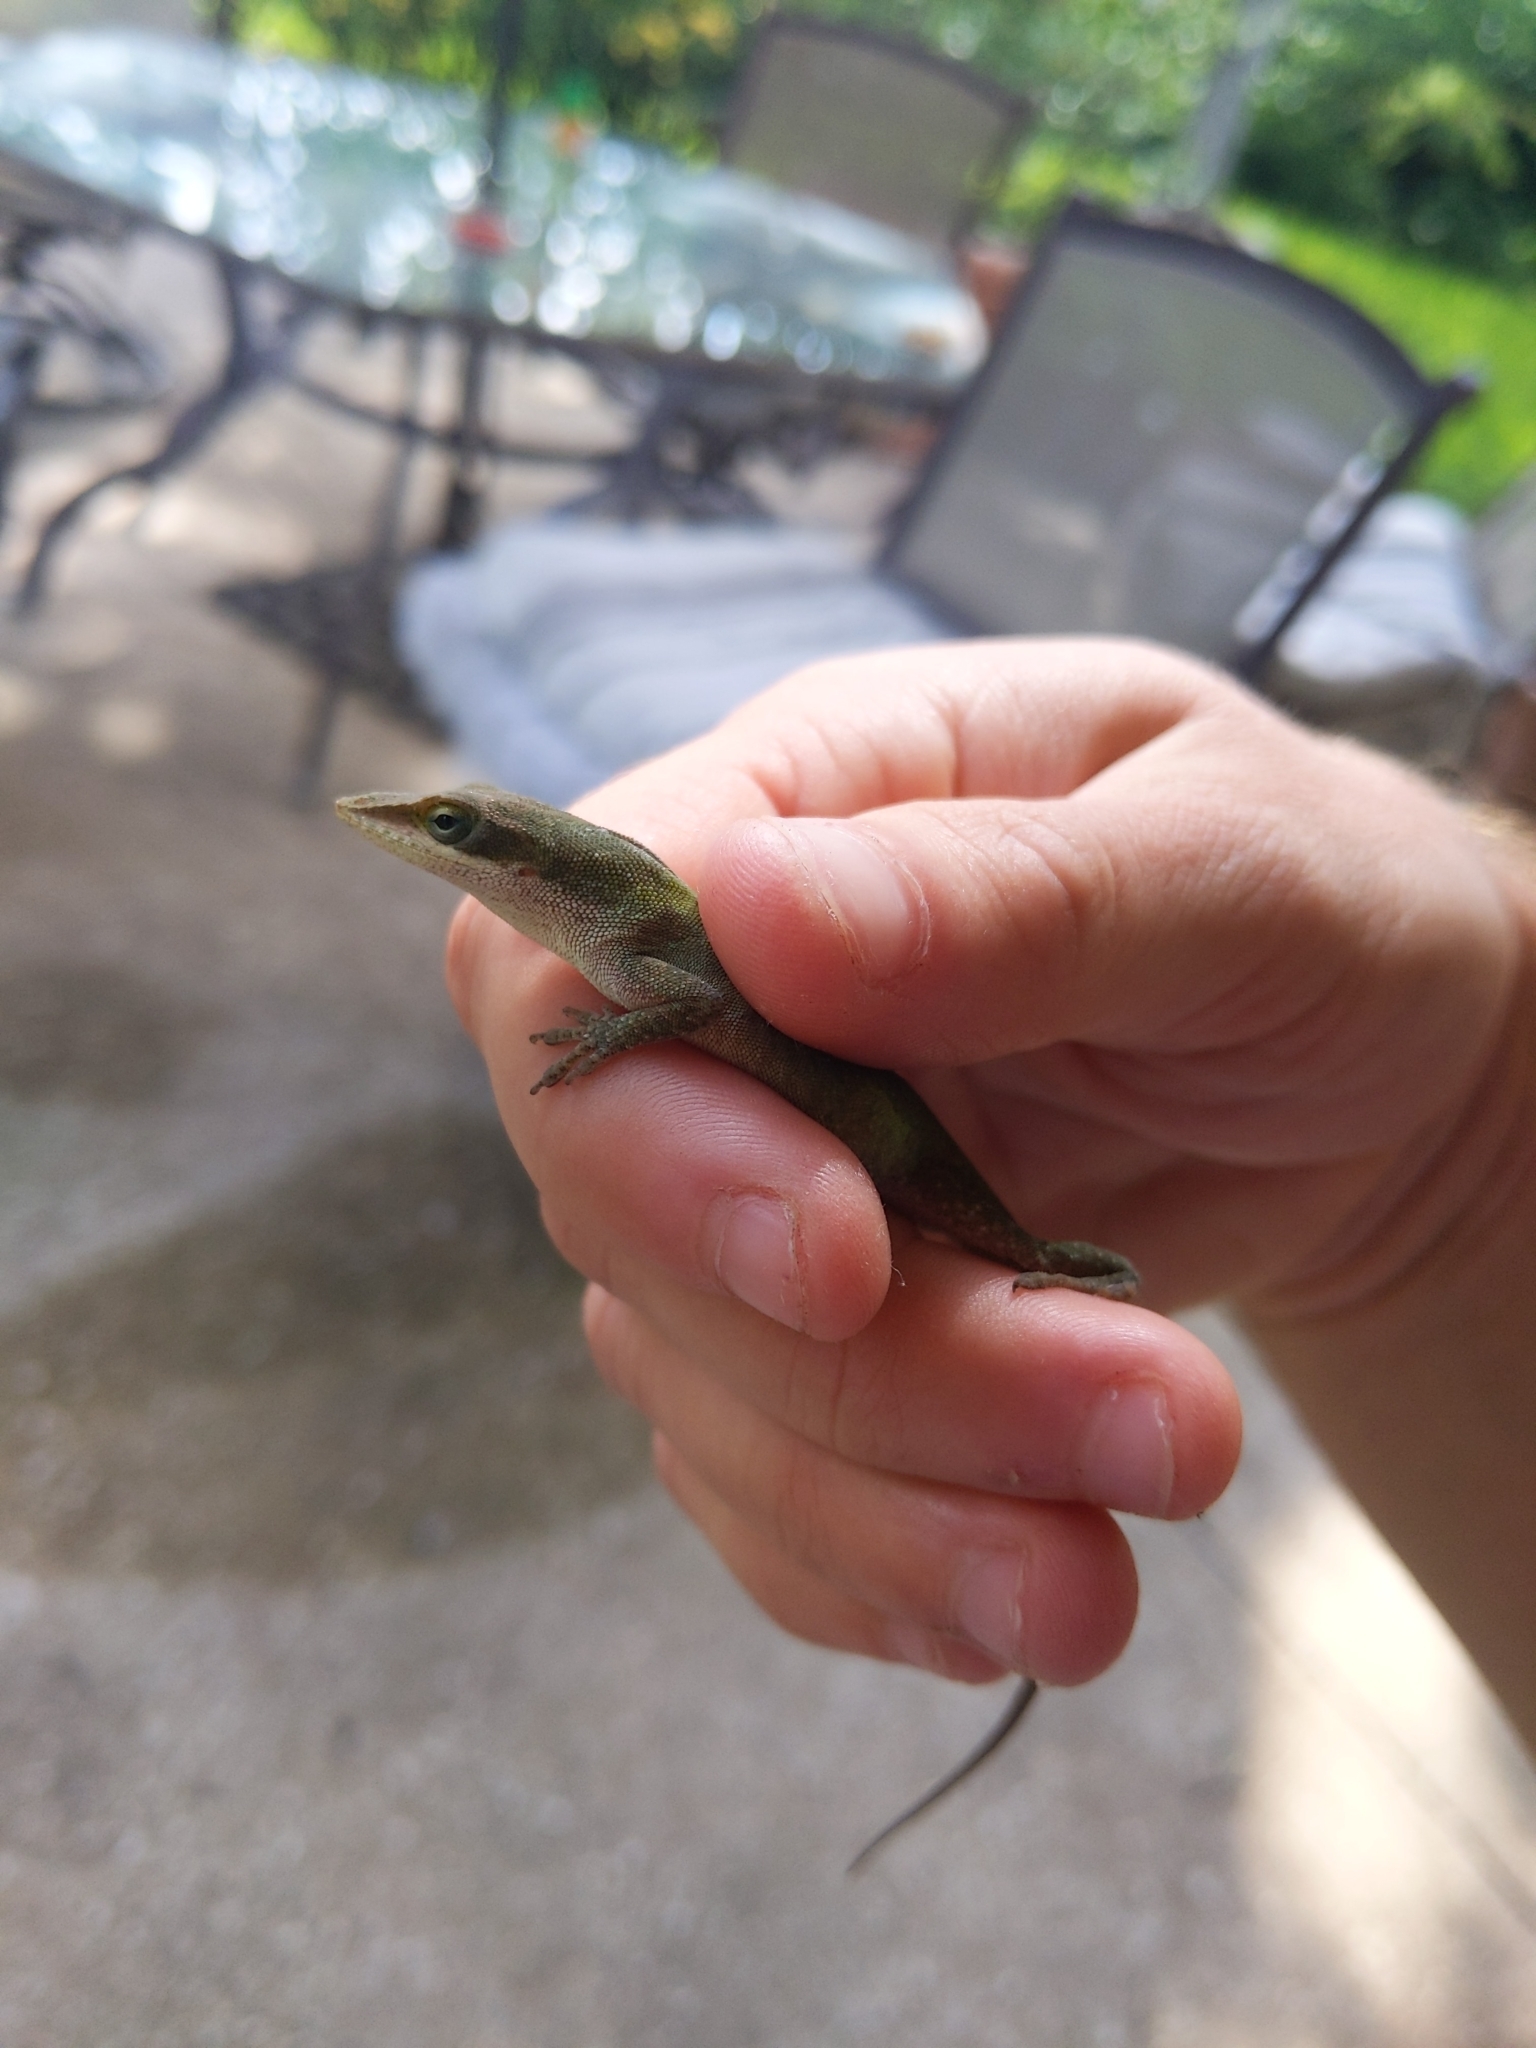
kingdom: Animalia
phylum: Chordata
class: Squamata
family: Dactyloidae
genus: Anolis
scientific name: Anolis carolinensis
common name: Green anole
